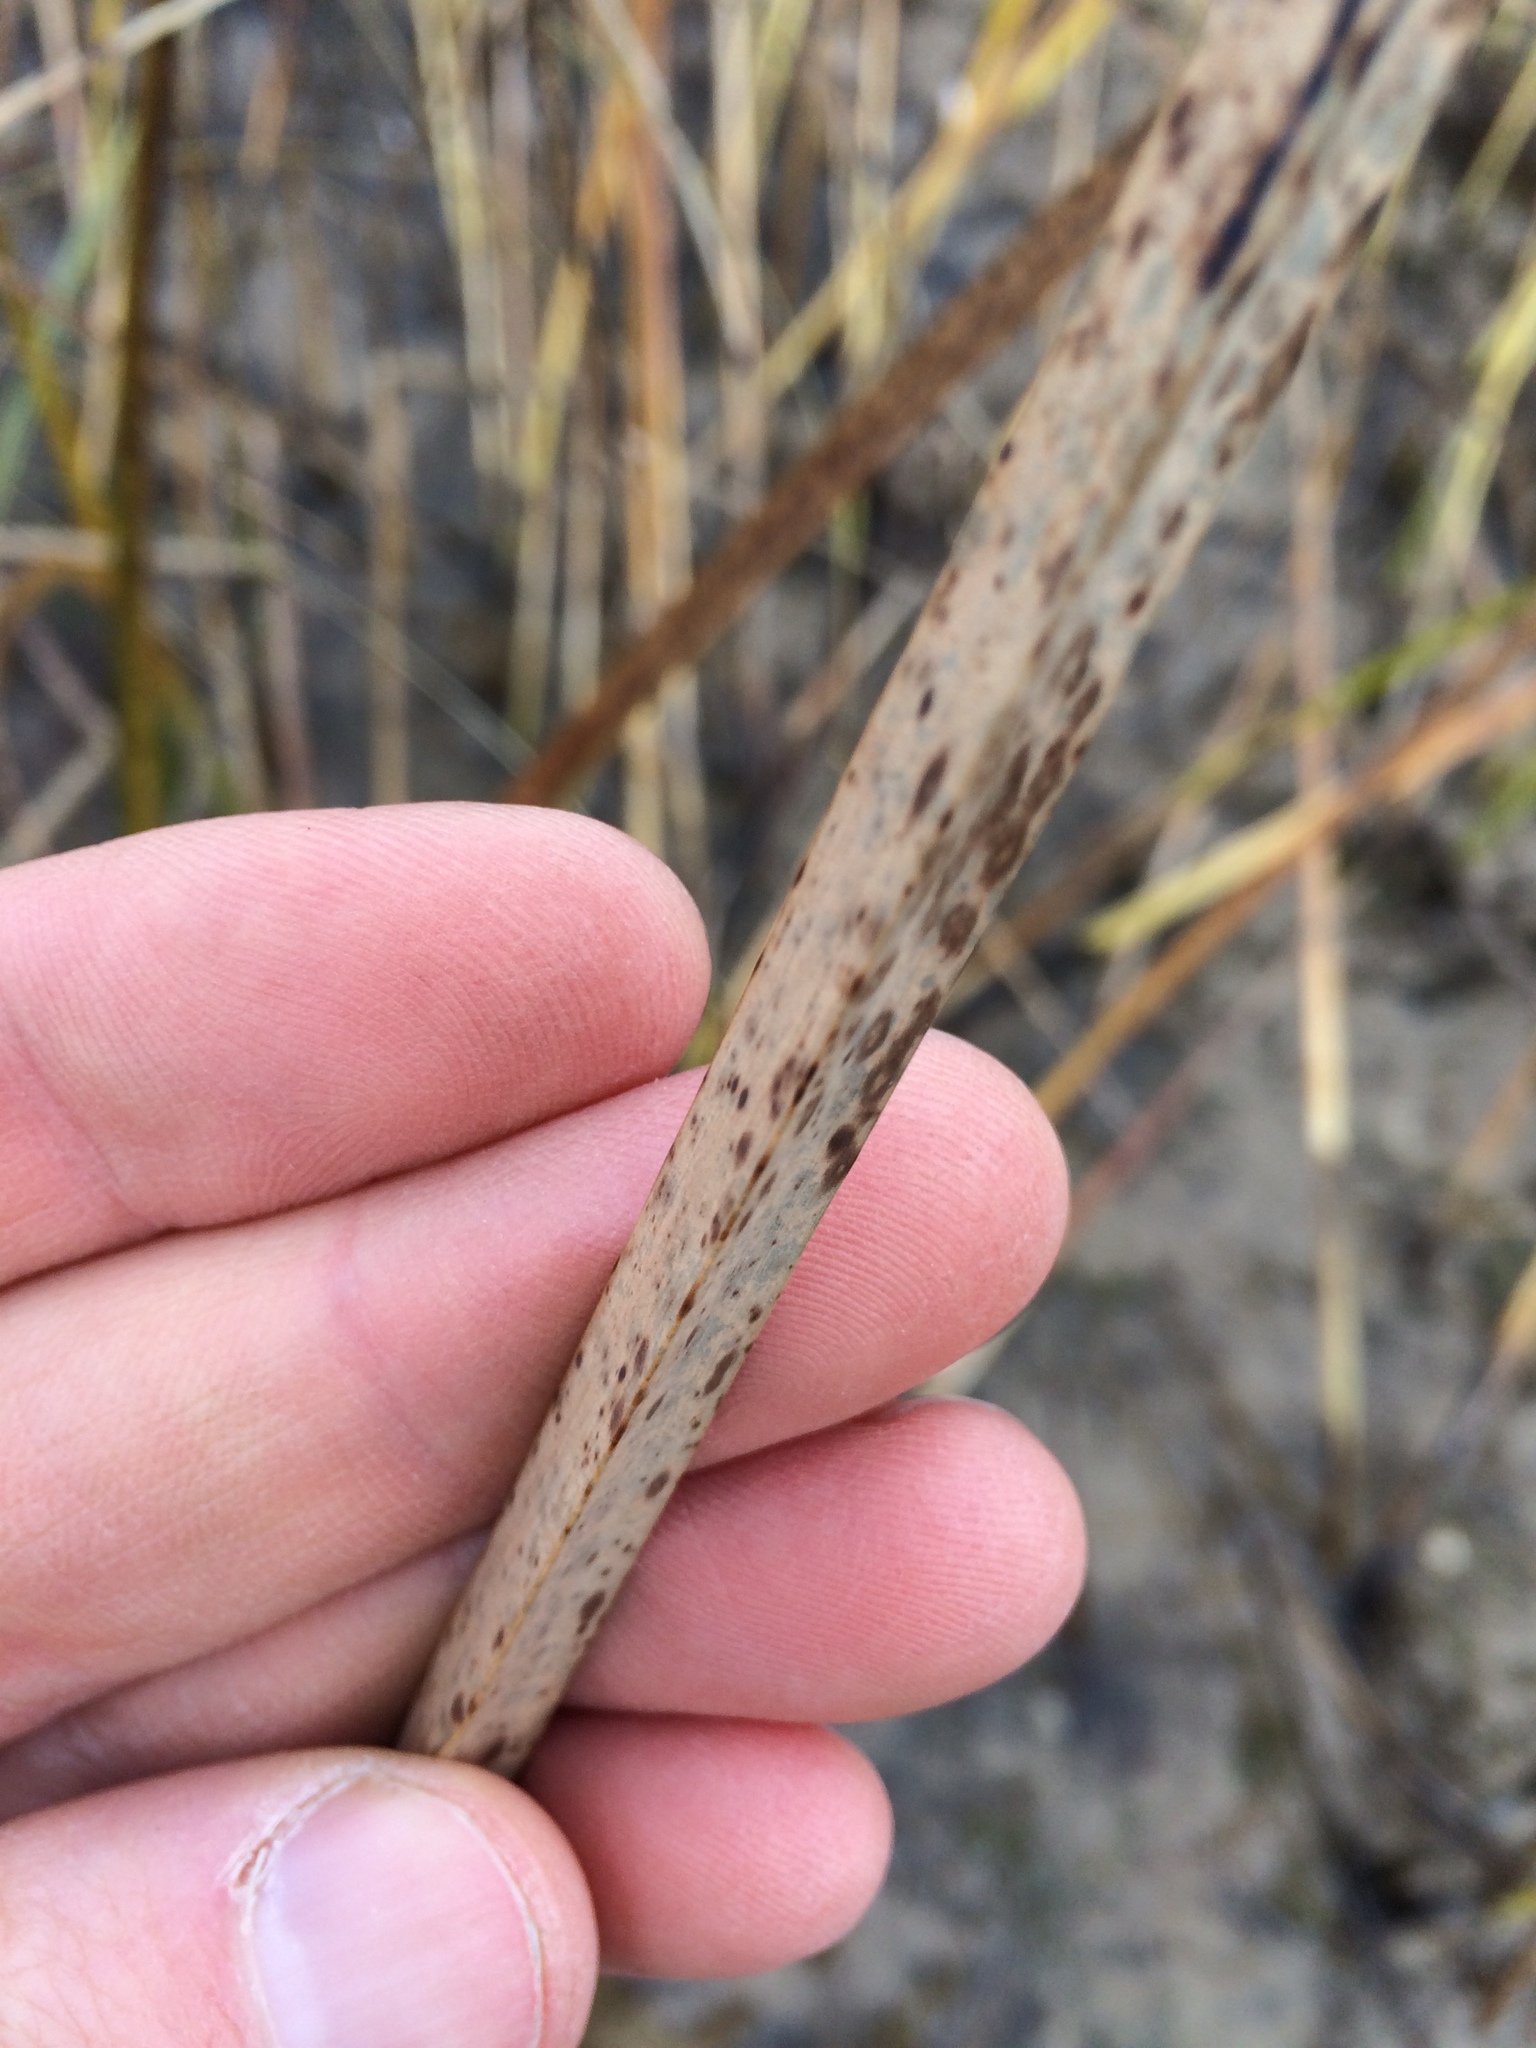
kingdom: Plantae
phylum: Tracheophyta
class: Liliopsida
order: Poales
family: Cyperaceae
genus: Schoenoplectus
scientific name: Schoenoplectus pungens
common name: Sharp club-rush
